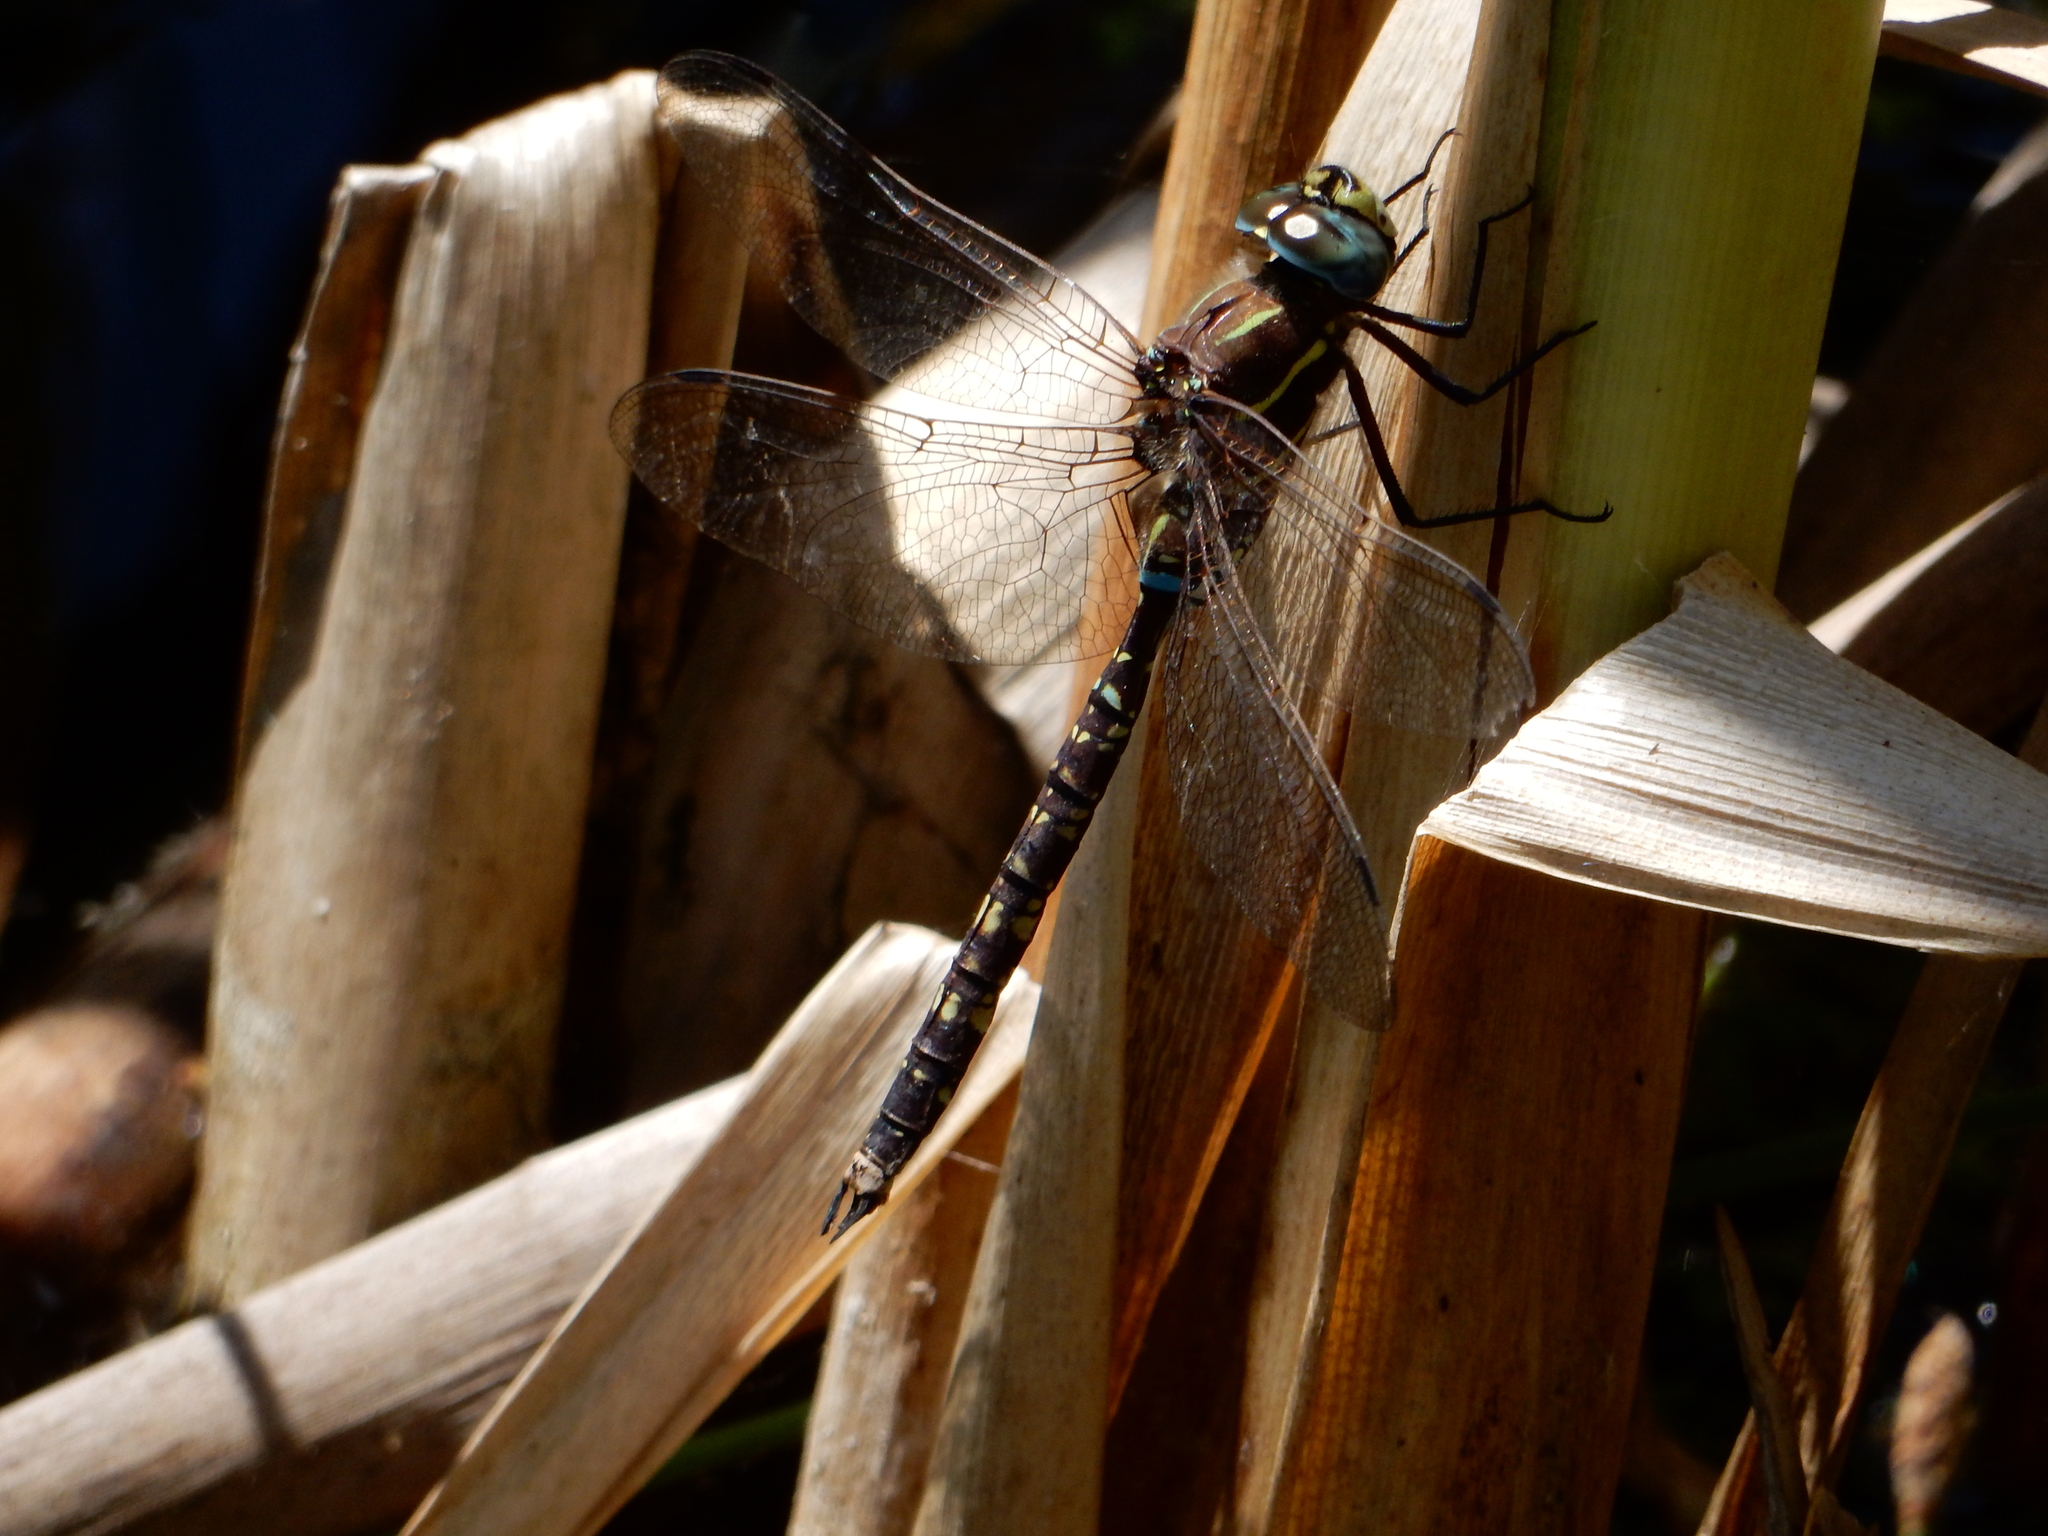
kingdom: Animalia
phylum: Arthropoda
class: Insecta
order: Odonata
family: Aeshnidae
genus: Aeshna
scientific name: Aeshna brevistyla
